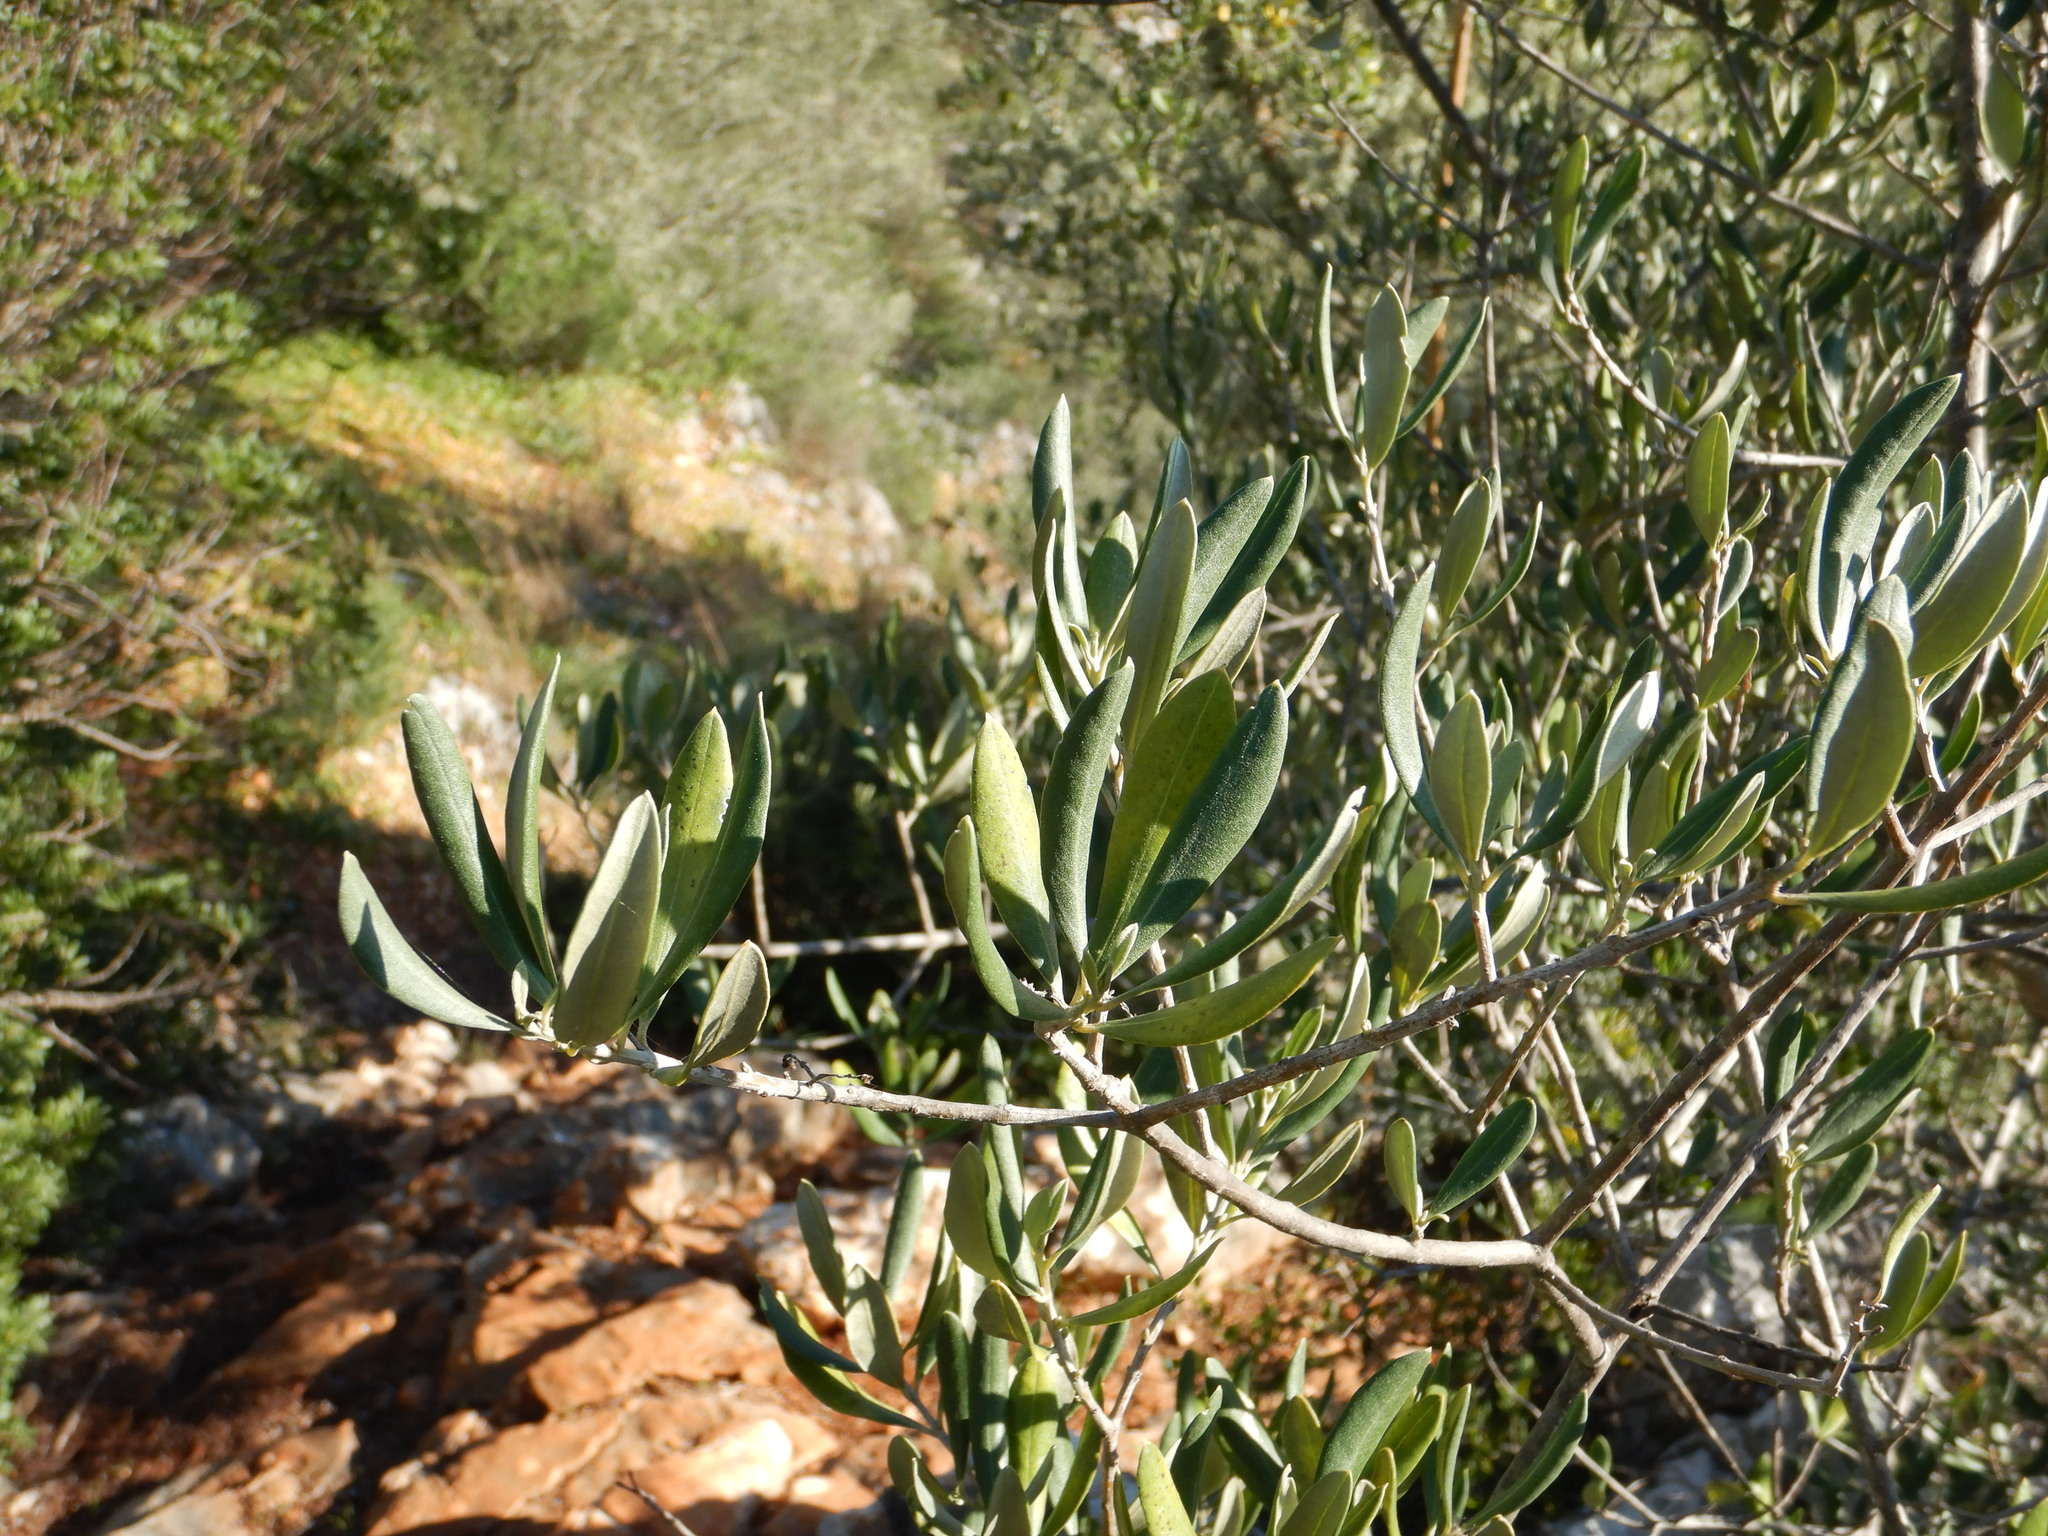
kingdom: Plantae
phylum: Tracheophyta
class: Magnoliopsida
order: Lamiales
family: Oleaceae
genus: Olea
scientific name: Olea europaea
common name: Olive
